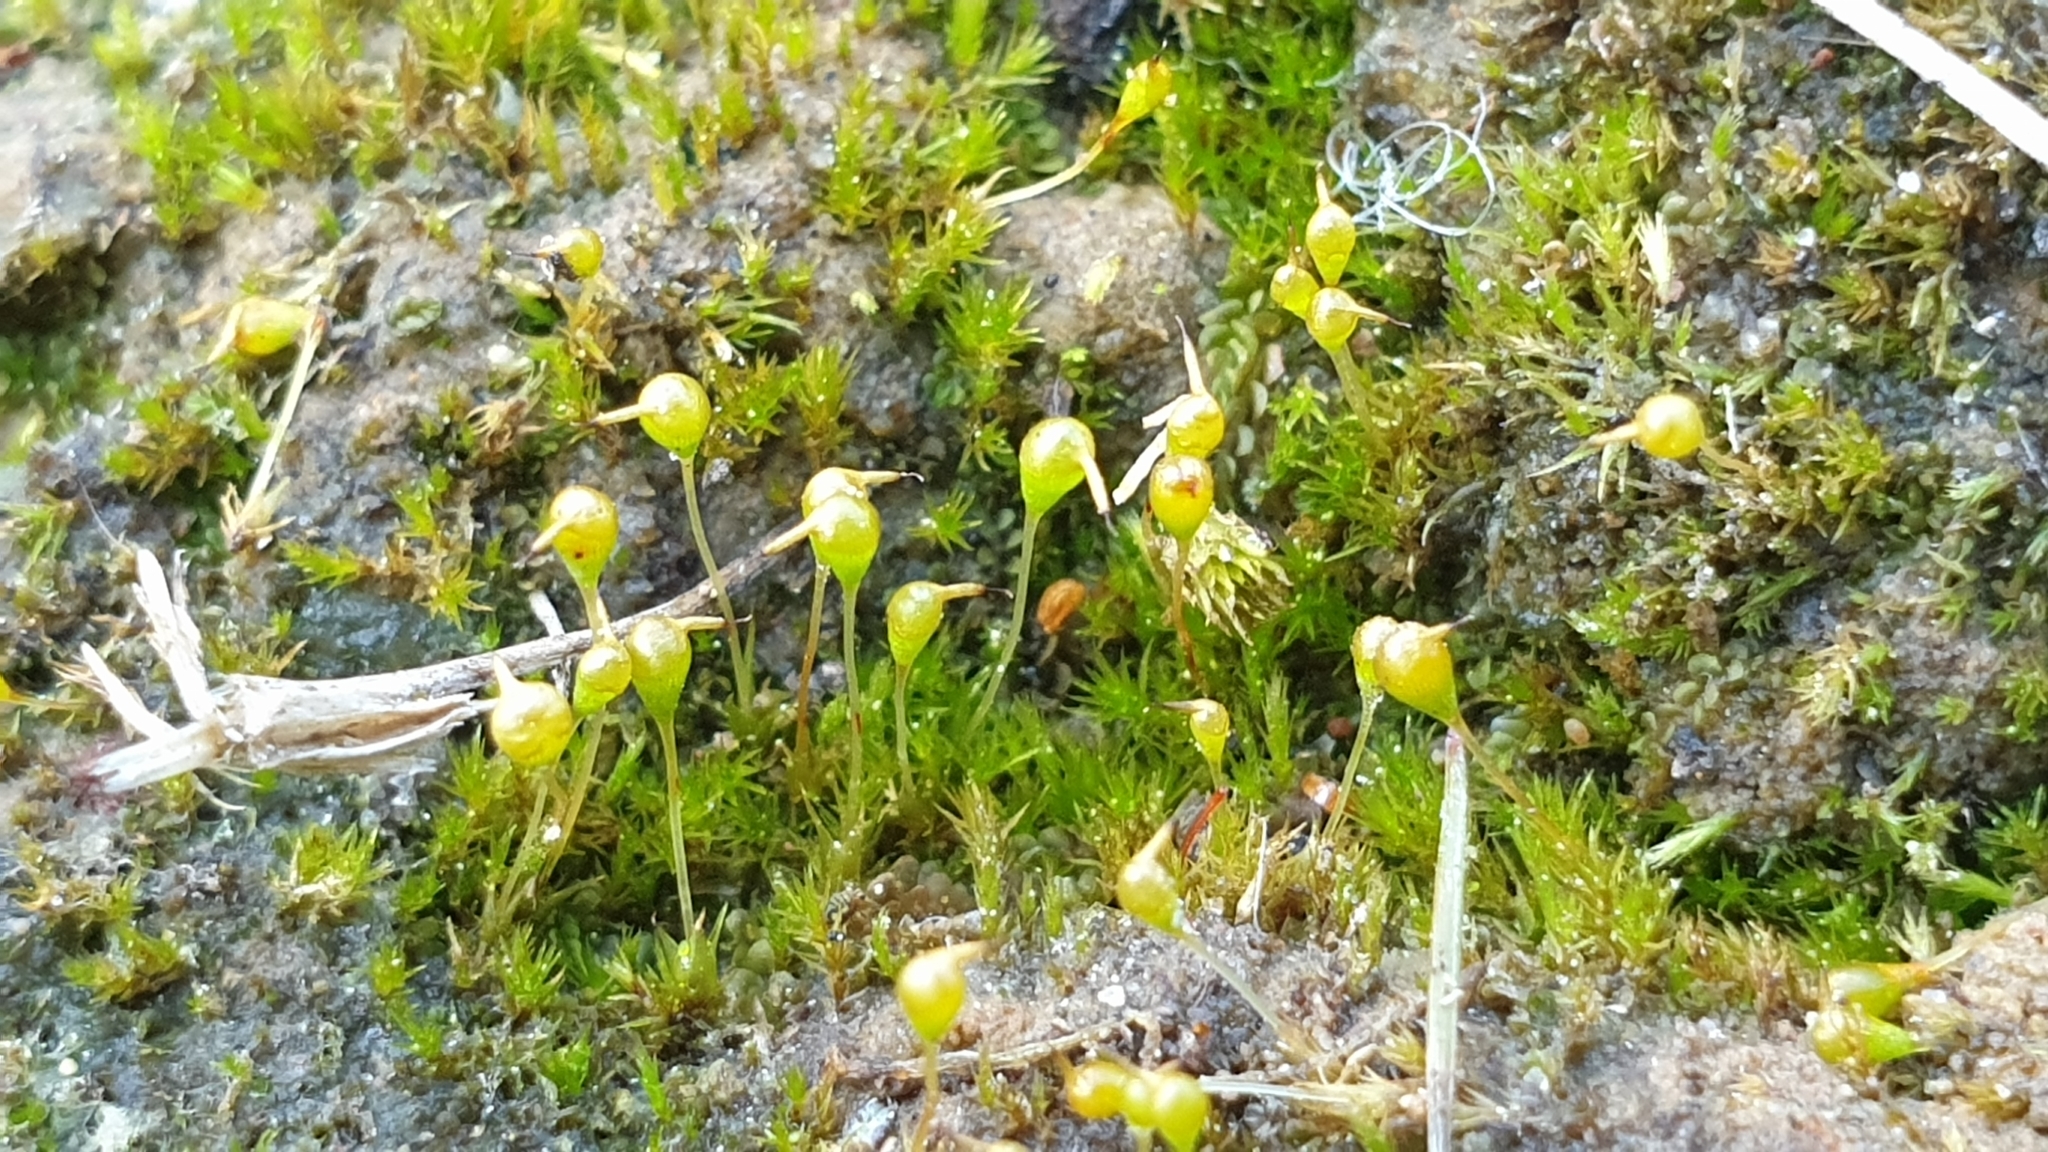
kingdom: Plantae
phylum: Bryophyta
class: Bryopsida
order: Funariales
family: Funariaceae
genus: Entosthodon
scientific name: Entosthodon subnudus
